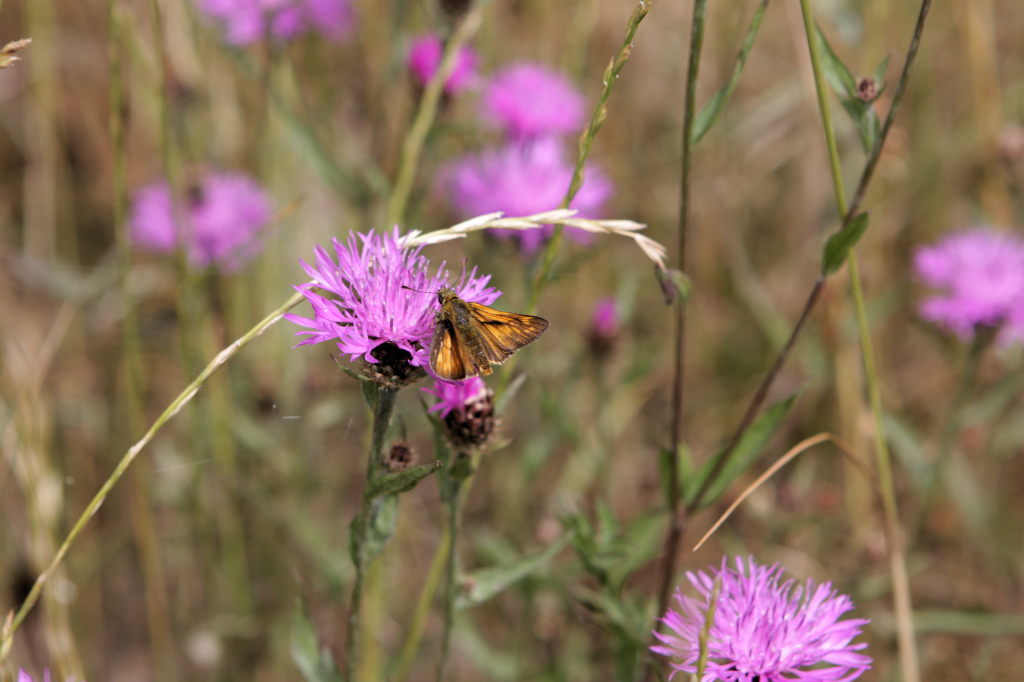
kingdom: Animalia
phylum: Arthropoda
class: Insecta
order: Lepidoptera
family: Hesperiidae
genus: Ochlodes
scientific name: Ochlodes venata
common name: Large skipper
